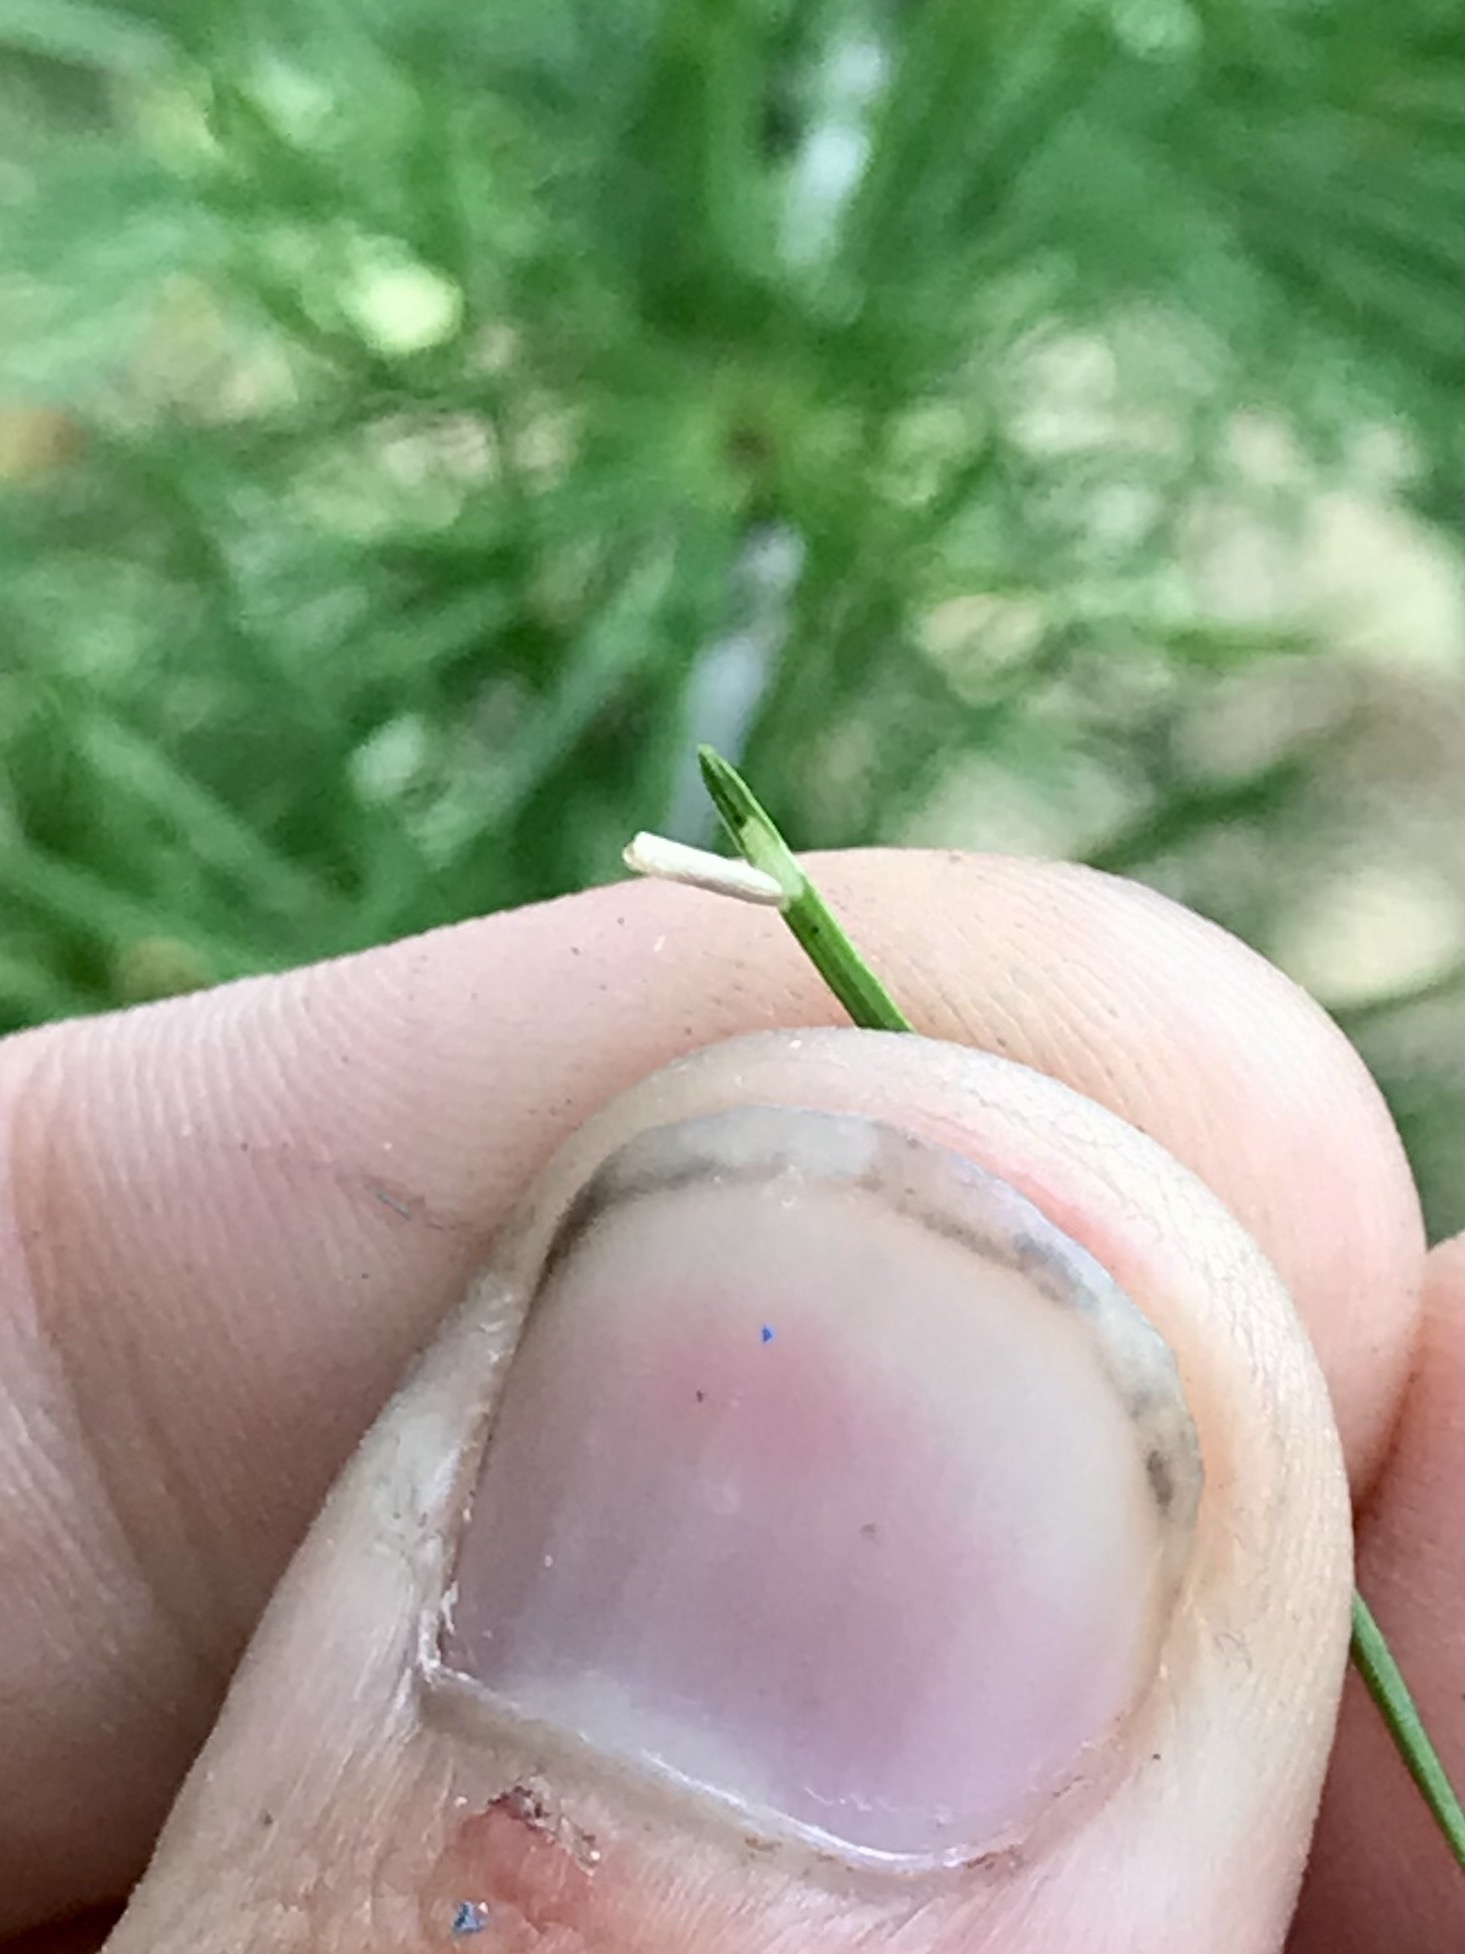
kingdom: Animalia
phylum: Arthropoda
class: Insecta
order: Lepidoptera
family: Coleophoridae
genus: Coleophora
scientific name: Coleophora laricella
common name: Larch case-bearer
